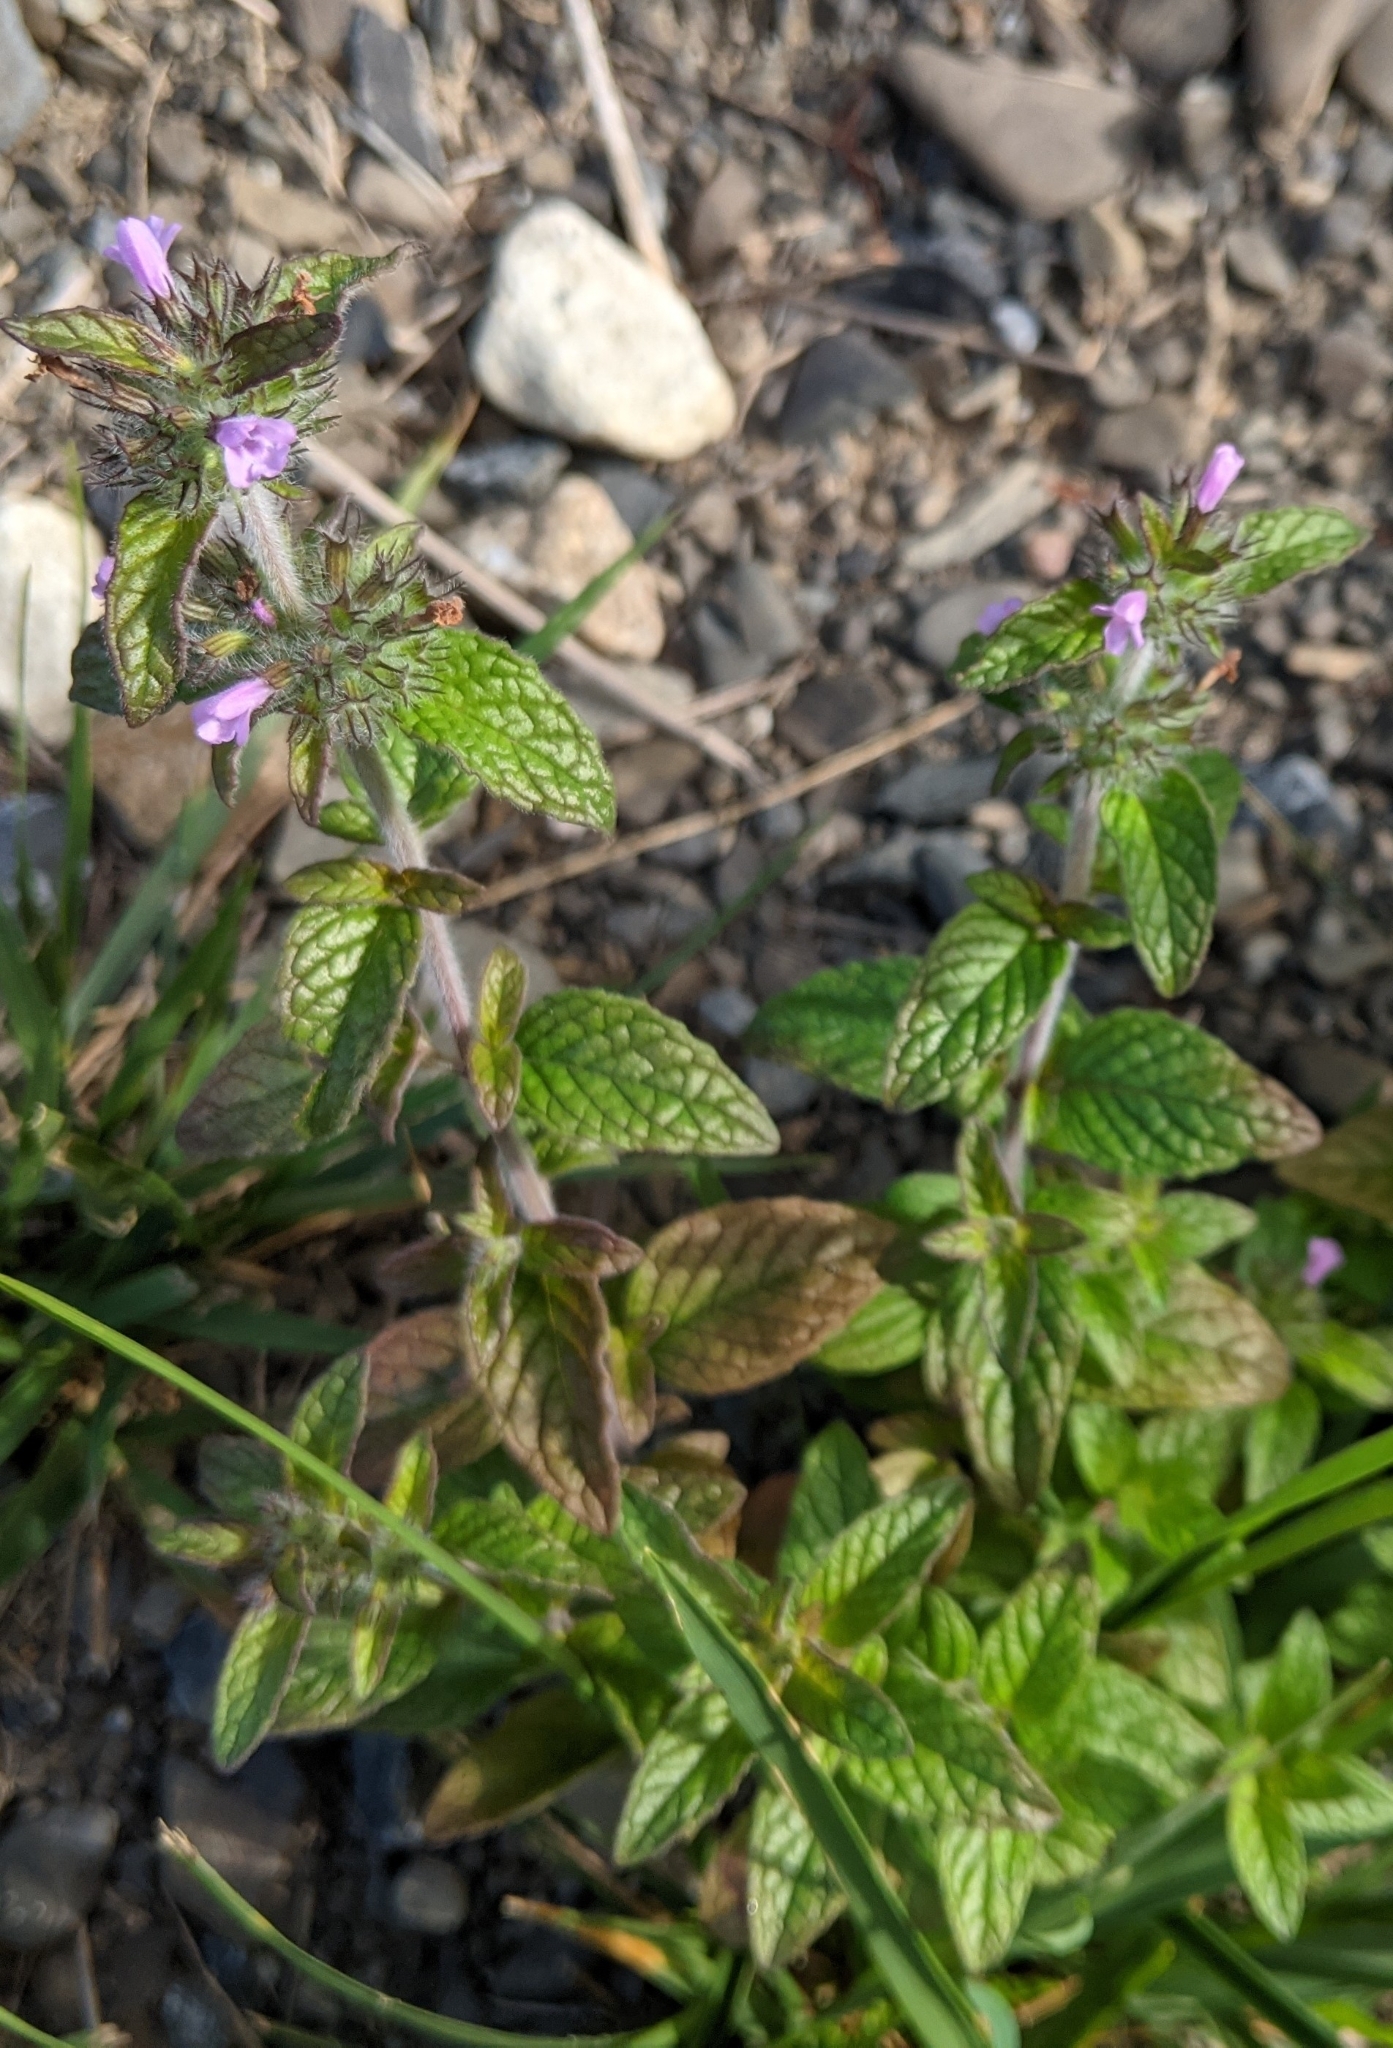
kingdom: Plantae
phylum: Tracheophyta
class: Magnoliopsida
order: Lamiales
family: Lamiaceae
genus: Clinopodium
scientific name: Clinopodium vulgare
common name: Wild basil
